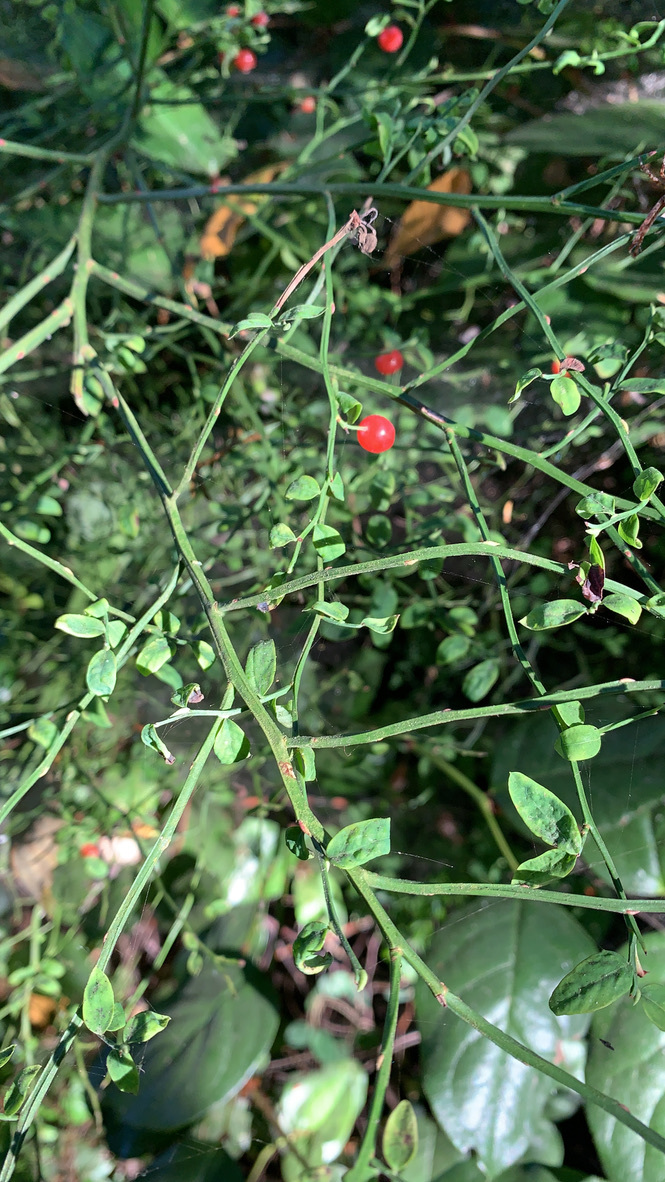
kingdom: Plantae
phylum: Tracheophyta
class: Magnoliopsida
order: Ericales
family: Ericaceae
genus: Vaccinium
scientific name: Vaccinium parvifolium
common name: Red-huckleberry
